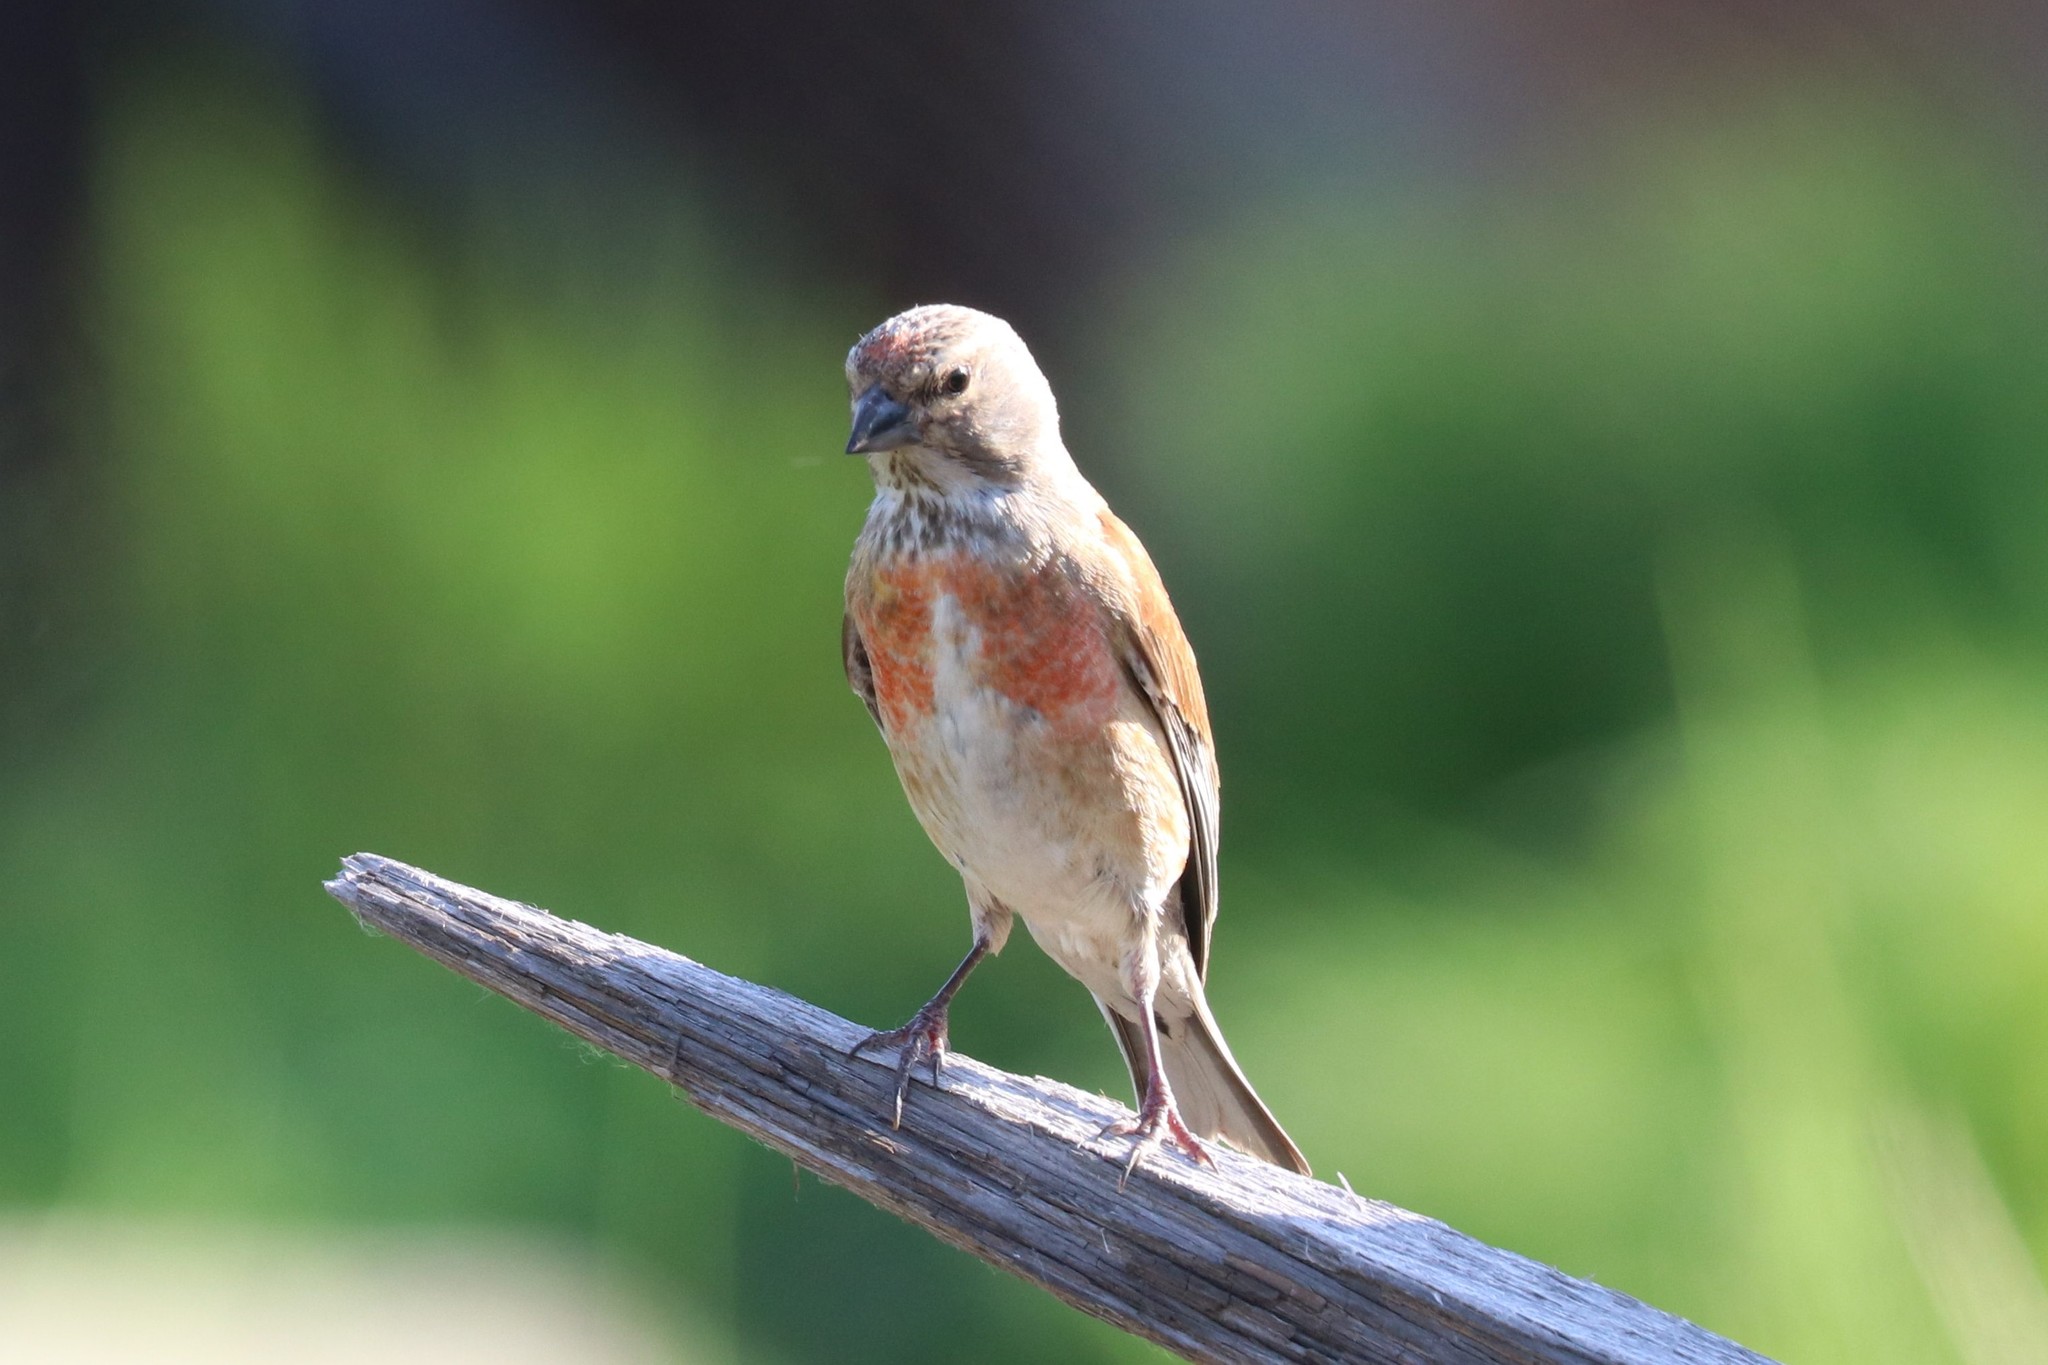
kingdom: Animalia
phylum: Chordata
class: Aves
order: Passeriformes
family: Fringillidae
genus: Linaria
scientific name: Linaria cannabina
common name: Common linnet
